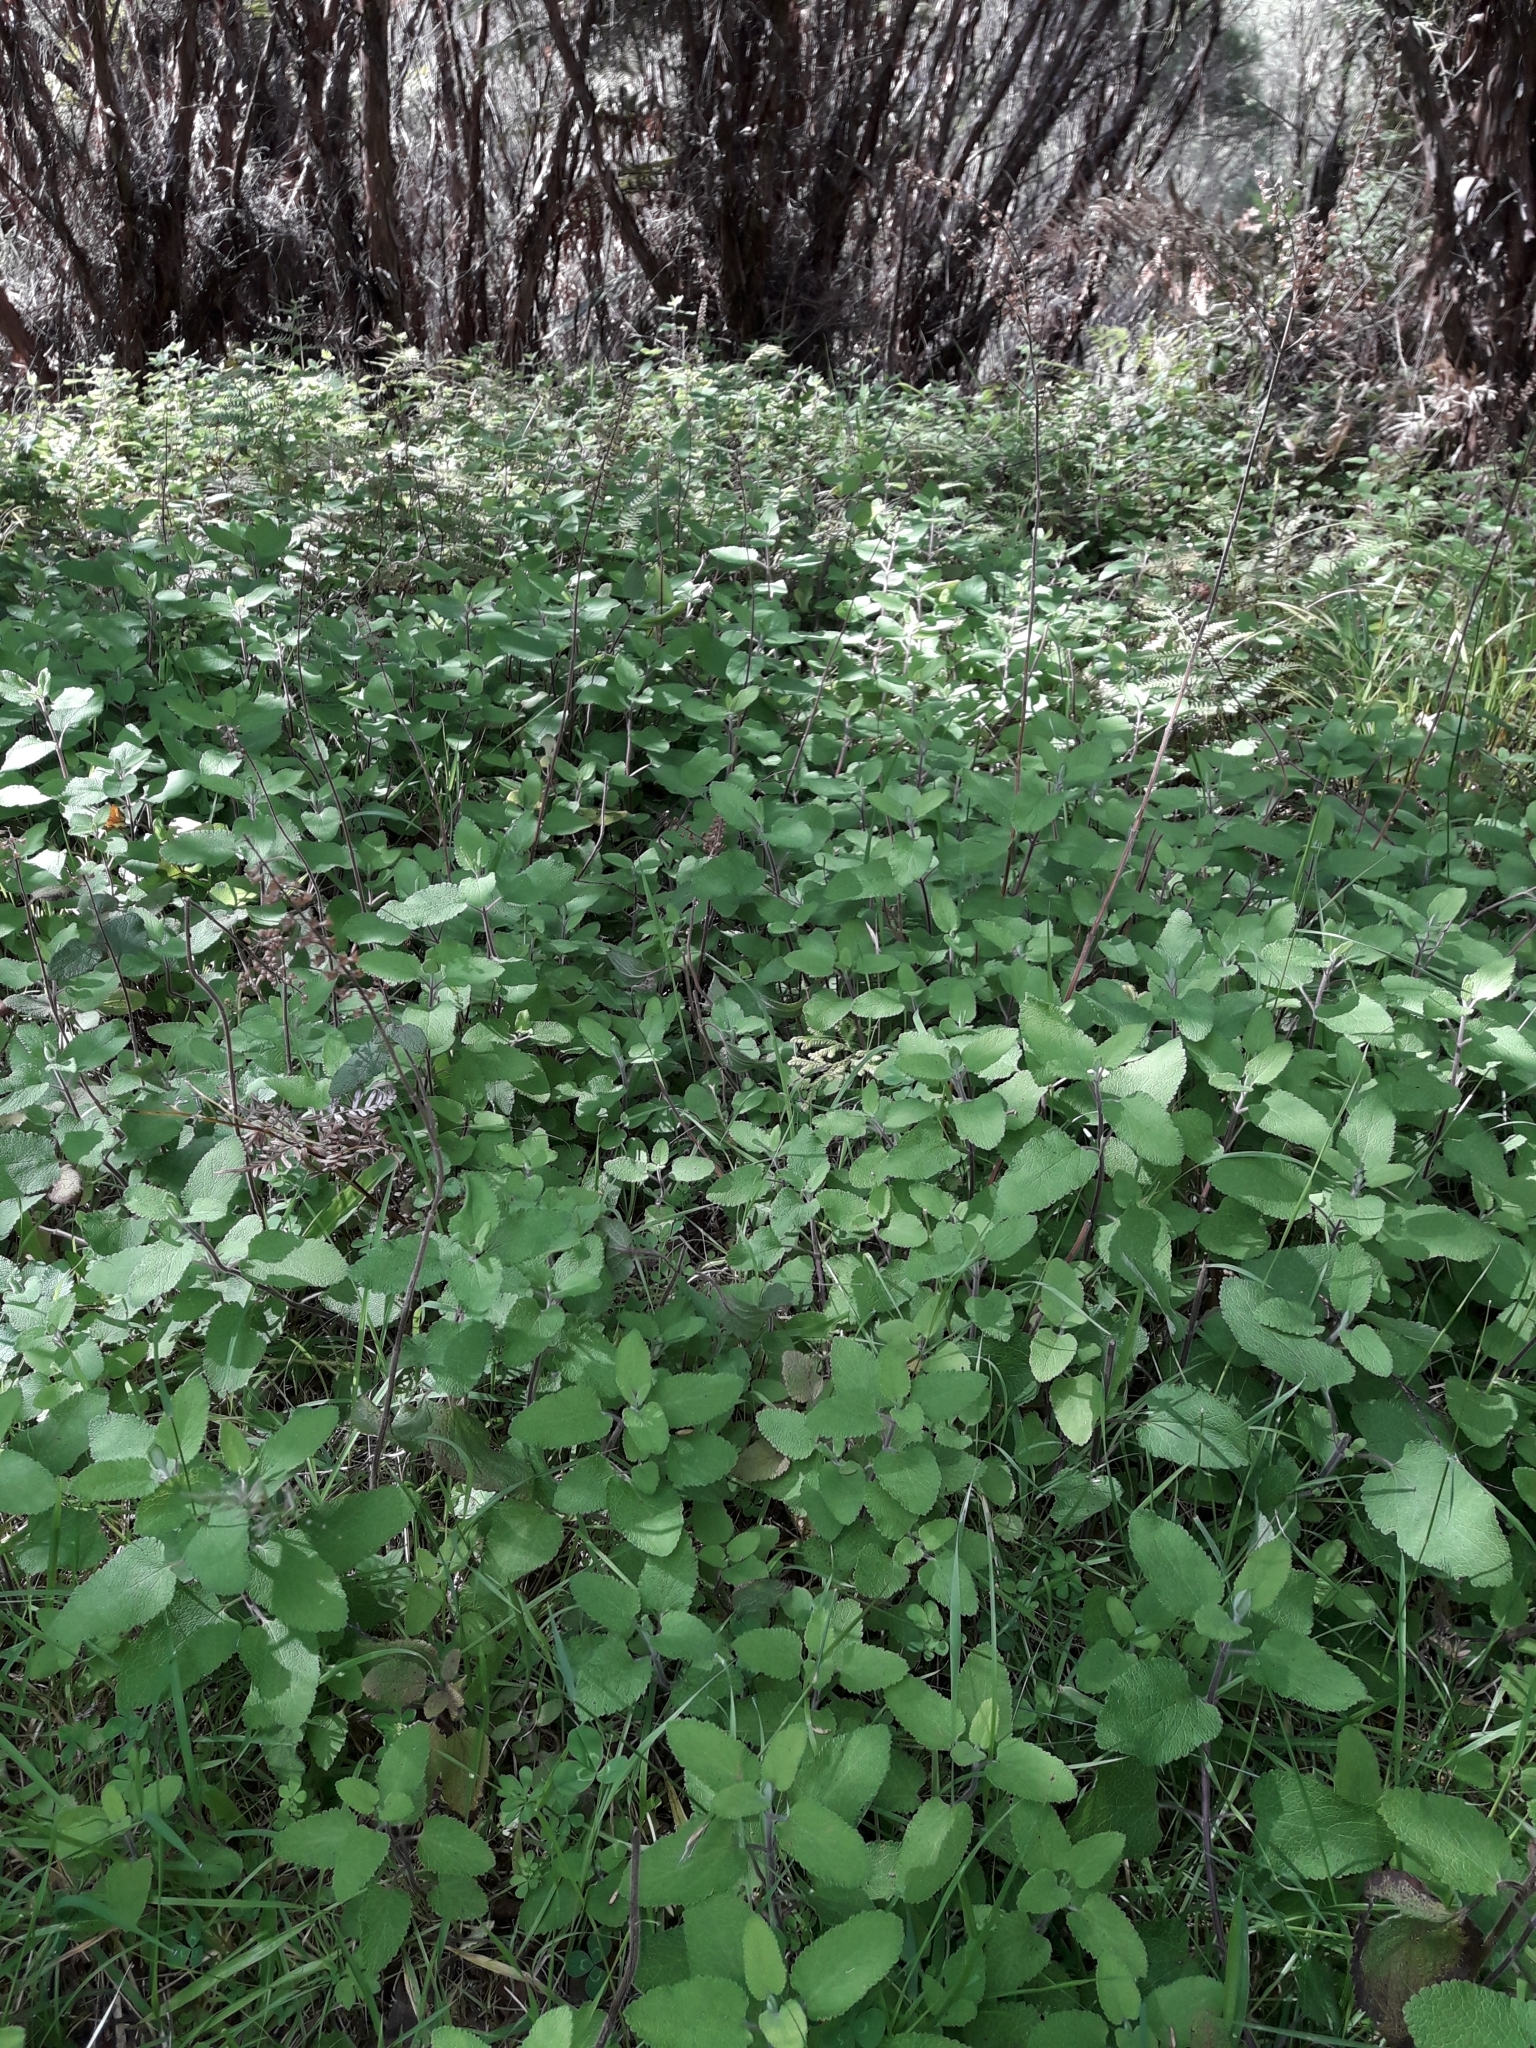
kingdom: Plantae
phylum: Tracheophyta
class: Magnoliopsida
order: Lamiales
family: Lamiaceae
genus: Teucrium
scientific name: Teucrium scorodonia
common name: Woodland germander
